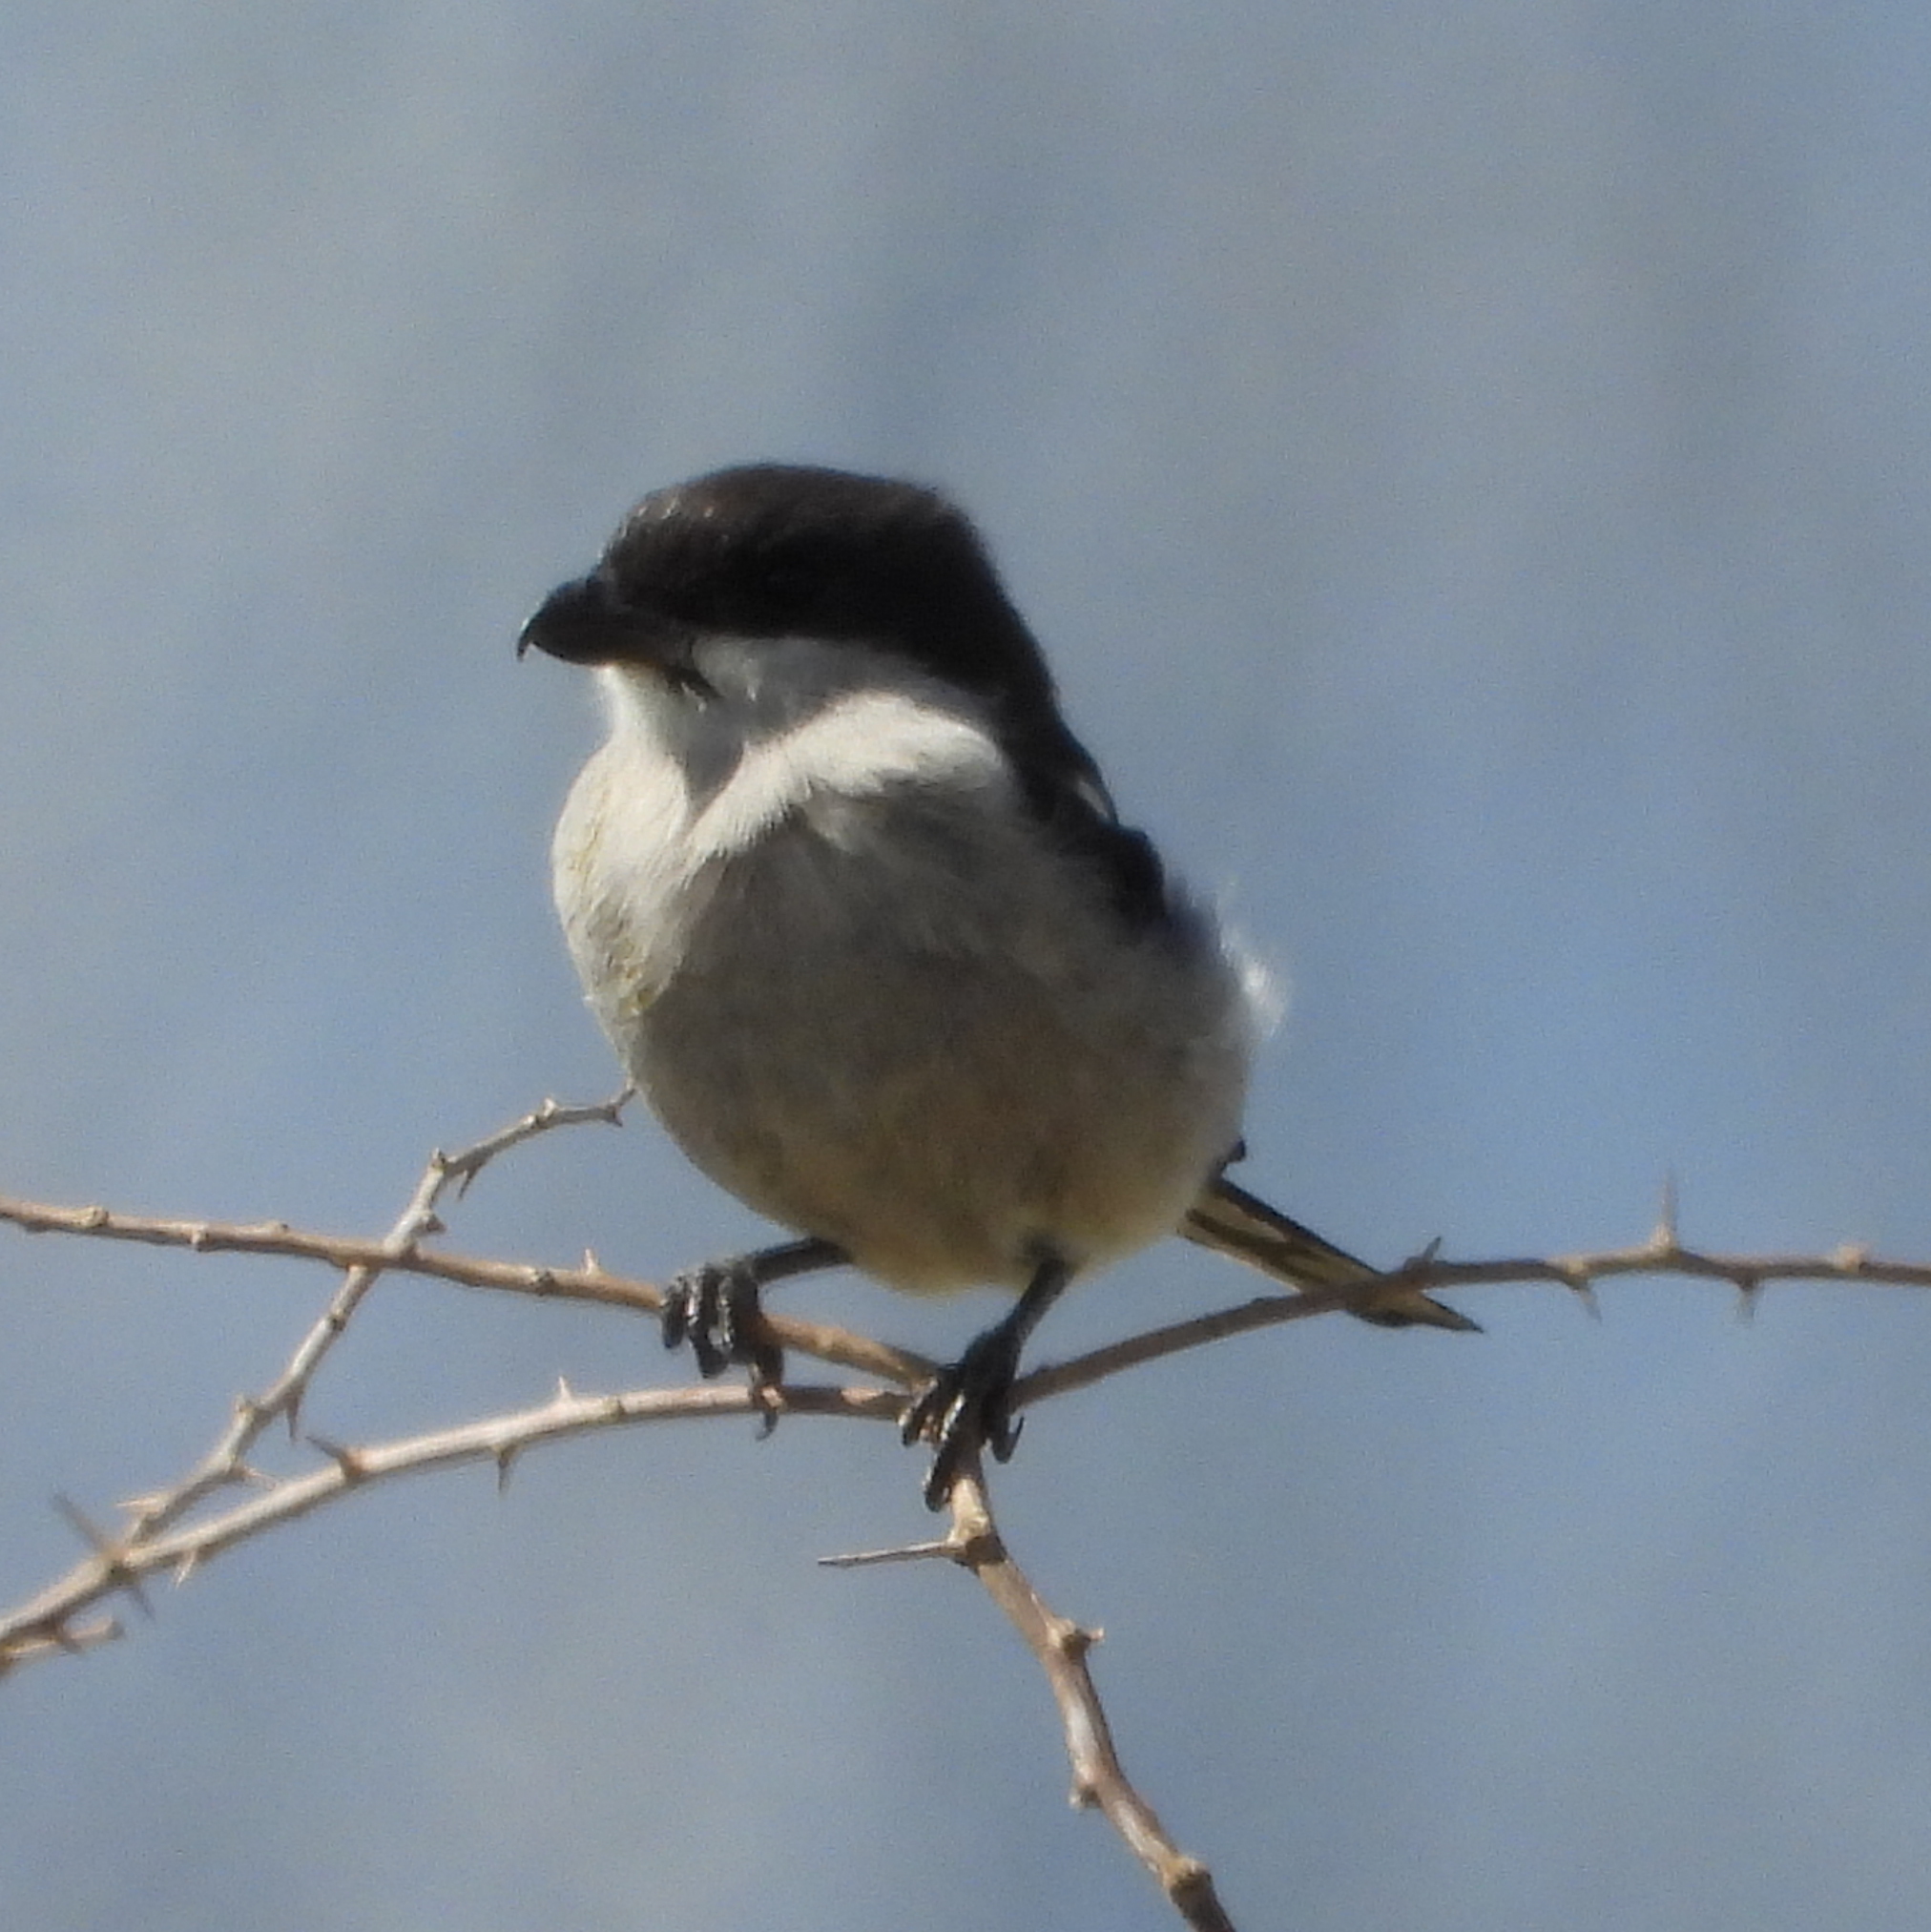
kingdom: Animalia
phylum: Chordata
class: Aves
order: Passeriformes
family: Laniidae
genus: Lanius
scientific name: Lanius collaris
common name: Southern fiscal
